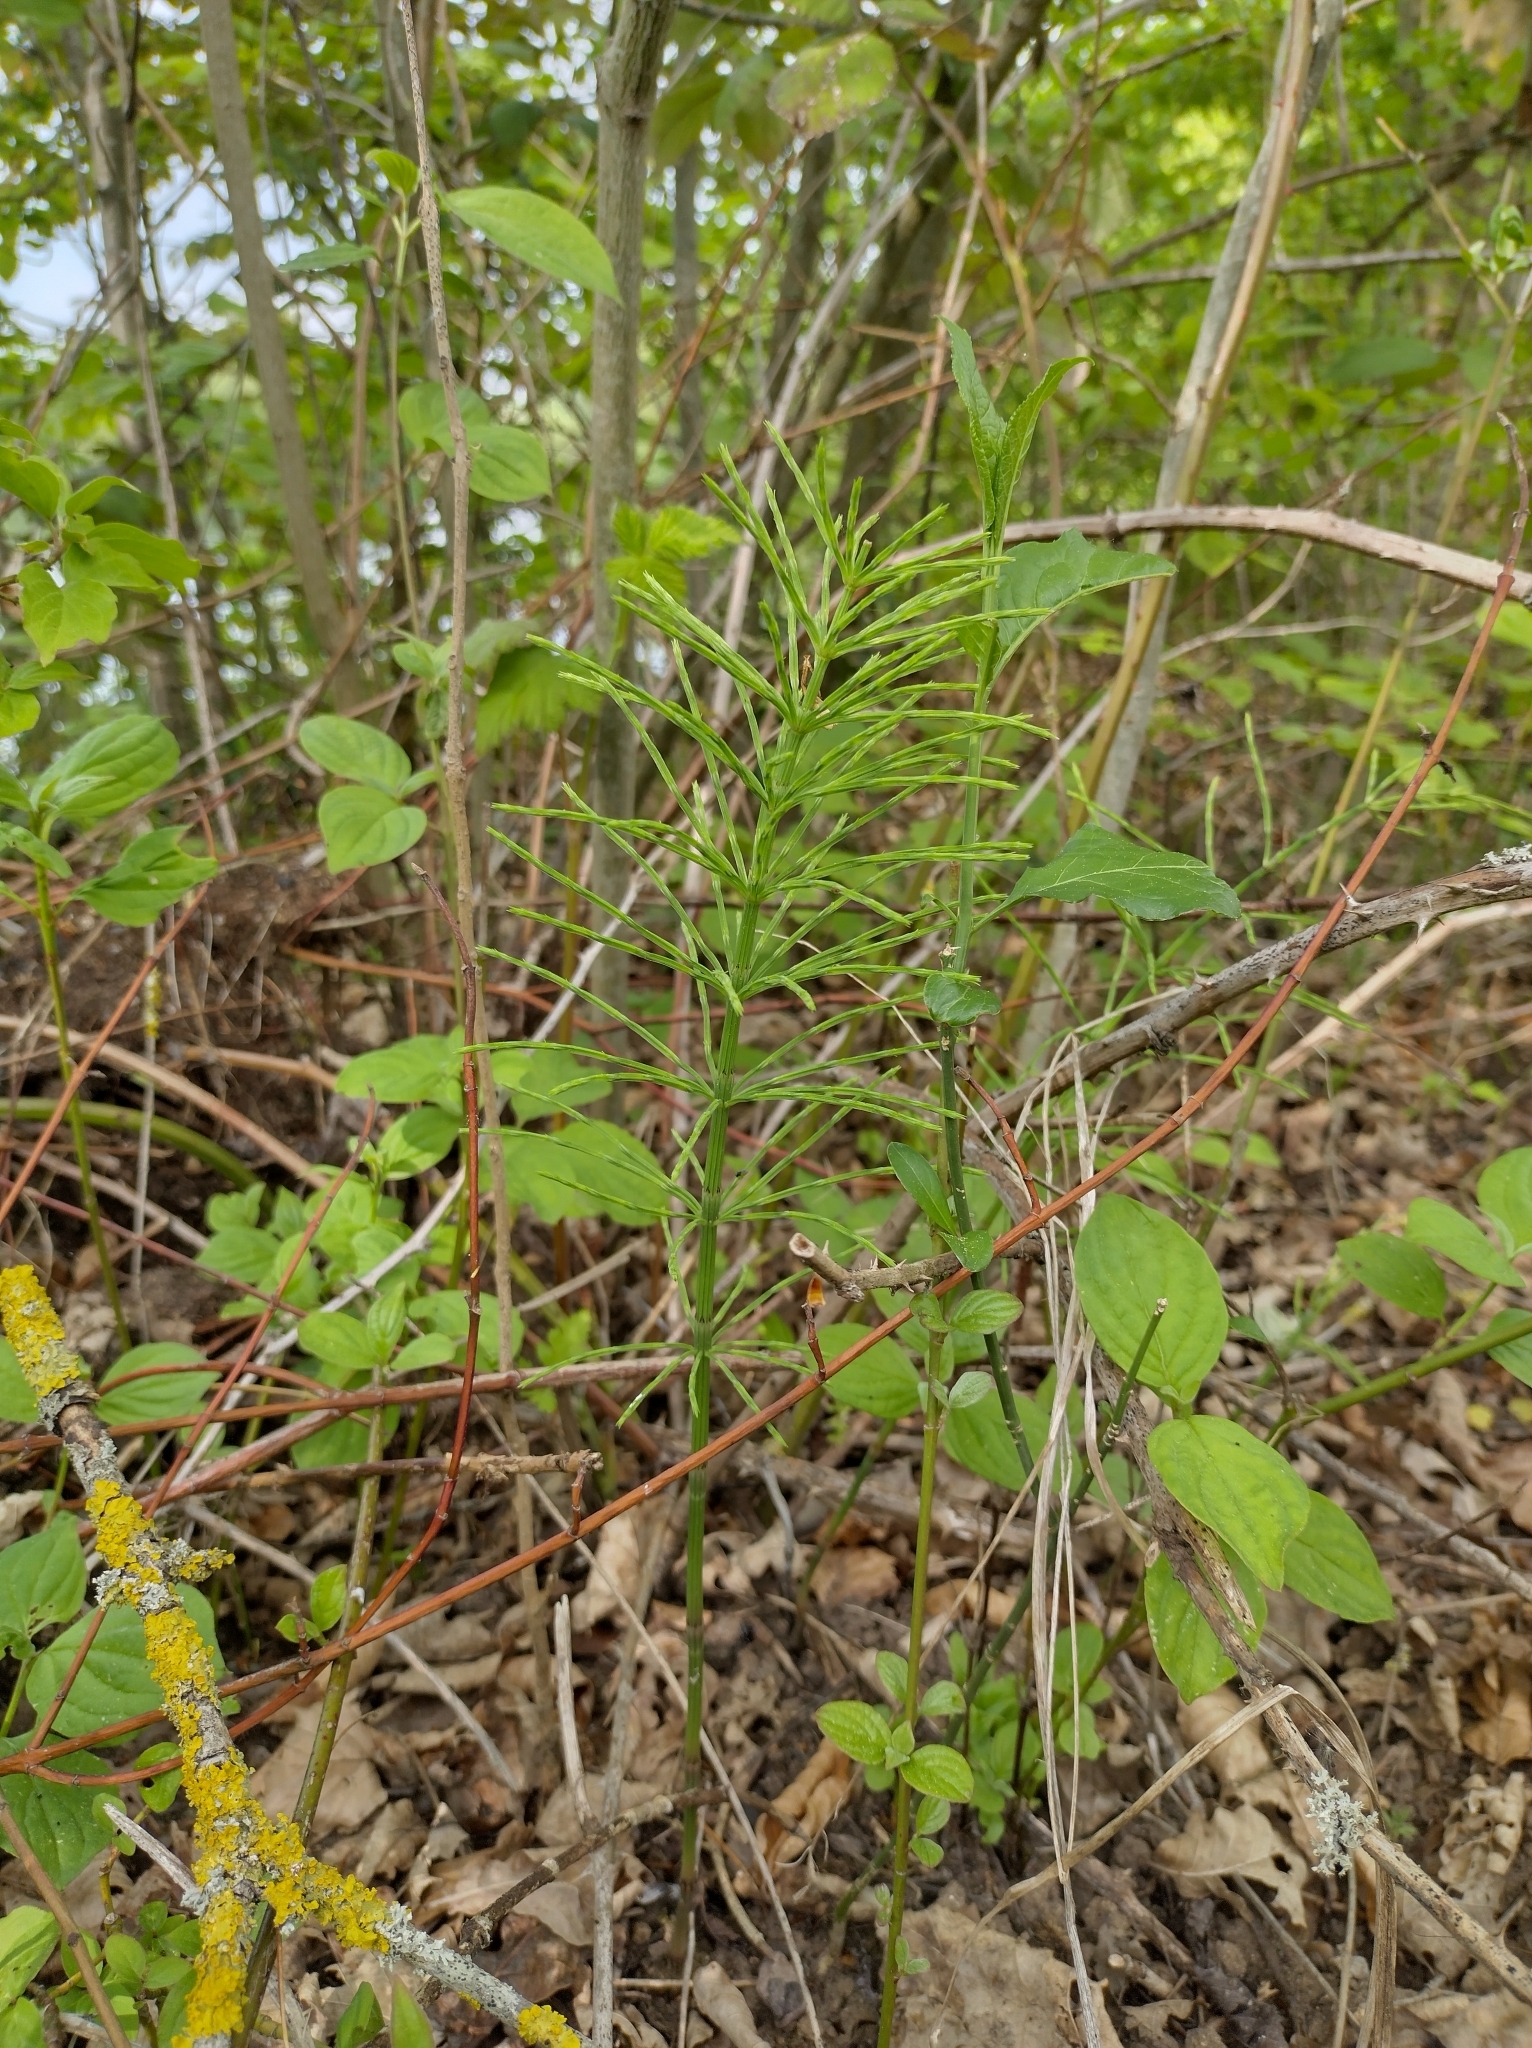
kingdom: Plantae
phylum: Tracheophyta
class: Polypodiopsida
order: Equisetales
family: Equisetaceae
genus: Equisetum
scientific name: Equisetum arvense
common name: Field horsetail
